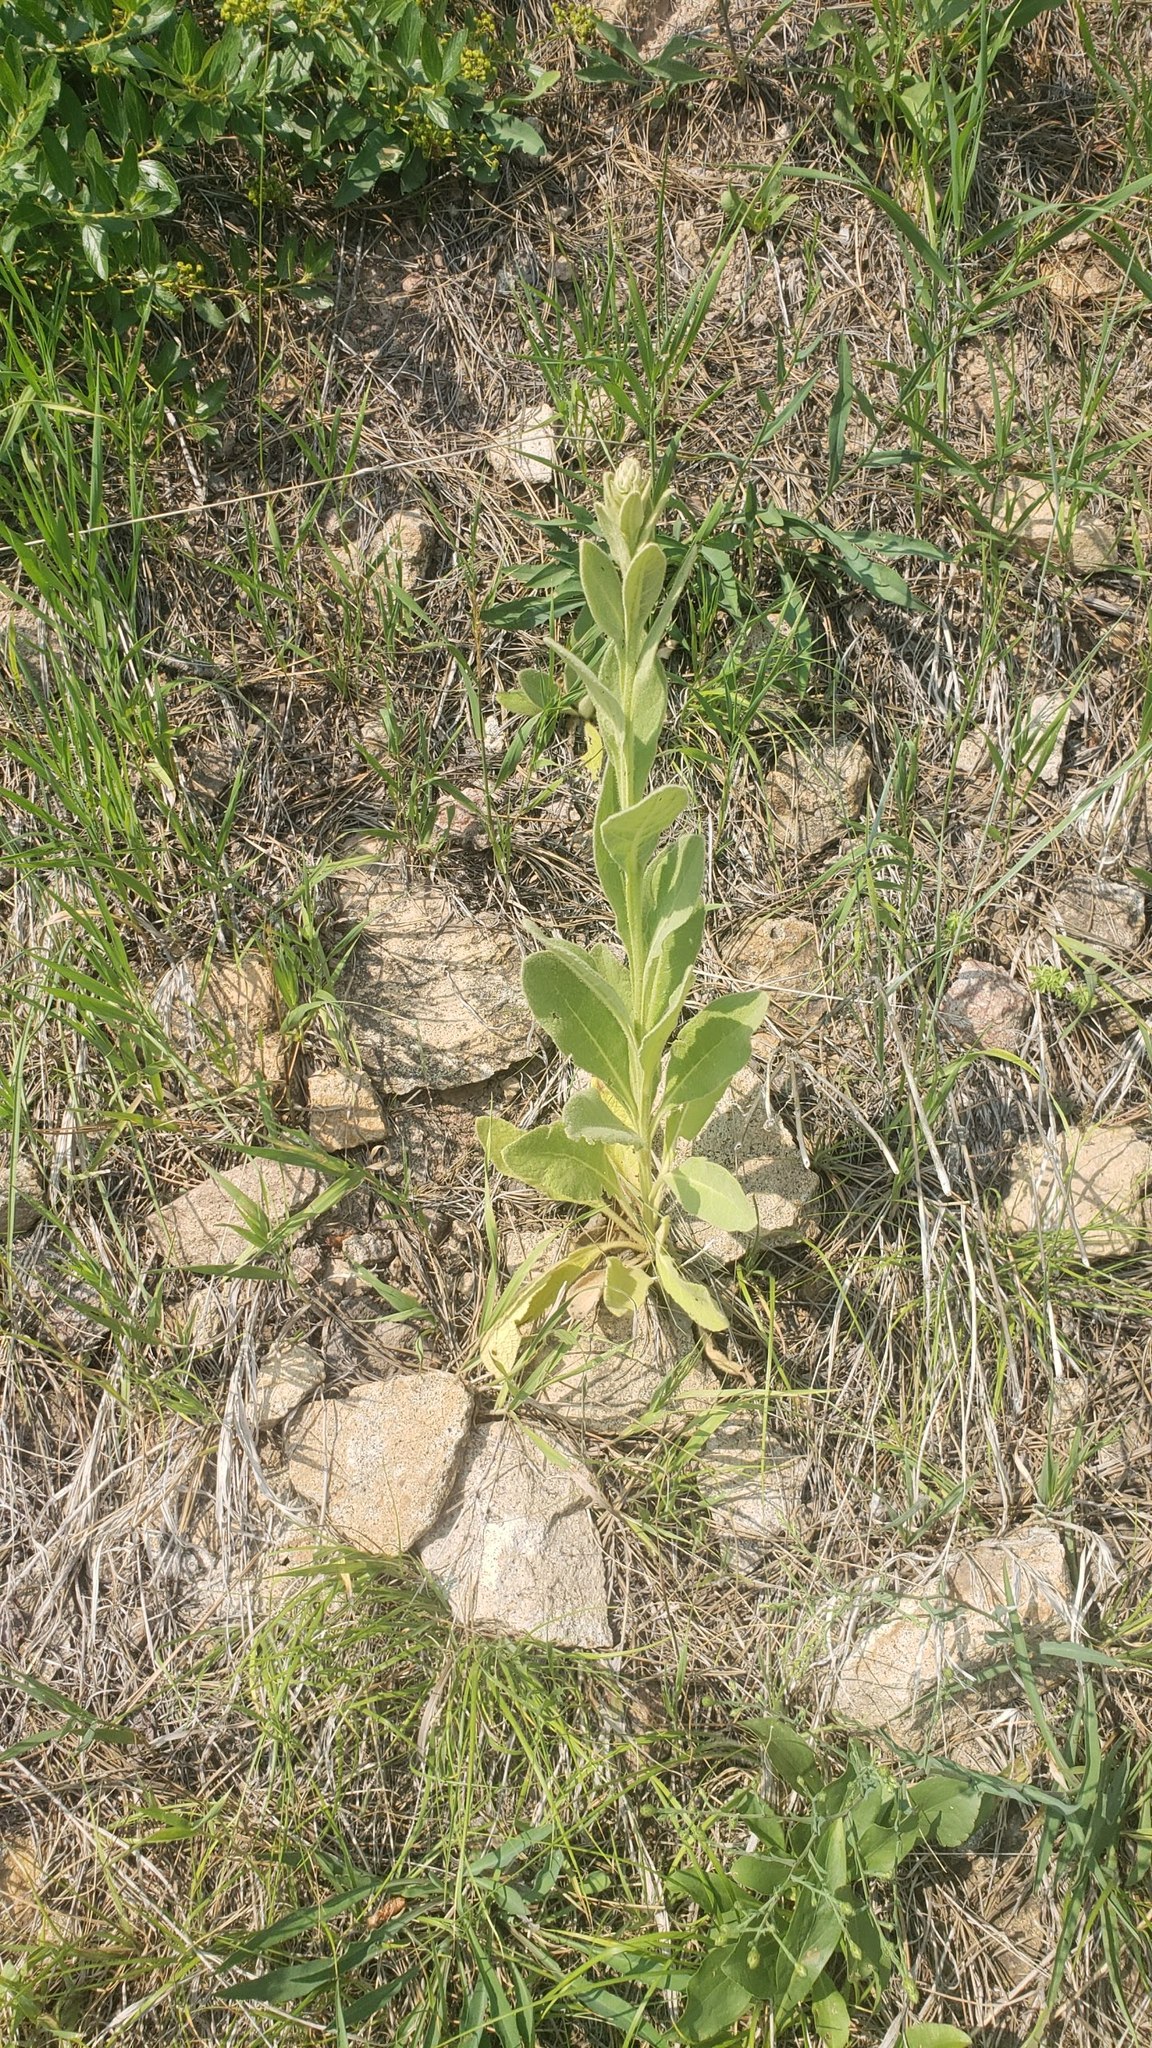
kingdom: Plantae
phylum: Tracheophyta
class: Magnoliopsida
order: Lamiales
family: Scrophulariaceae
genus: Verbascum
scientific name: Verbascum thapsus
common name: Common mullein
